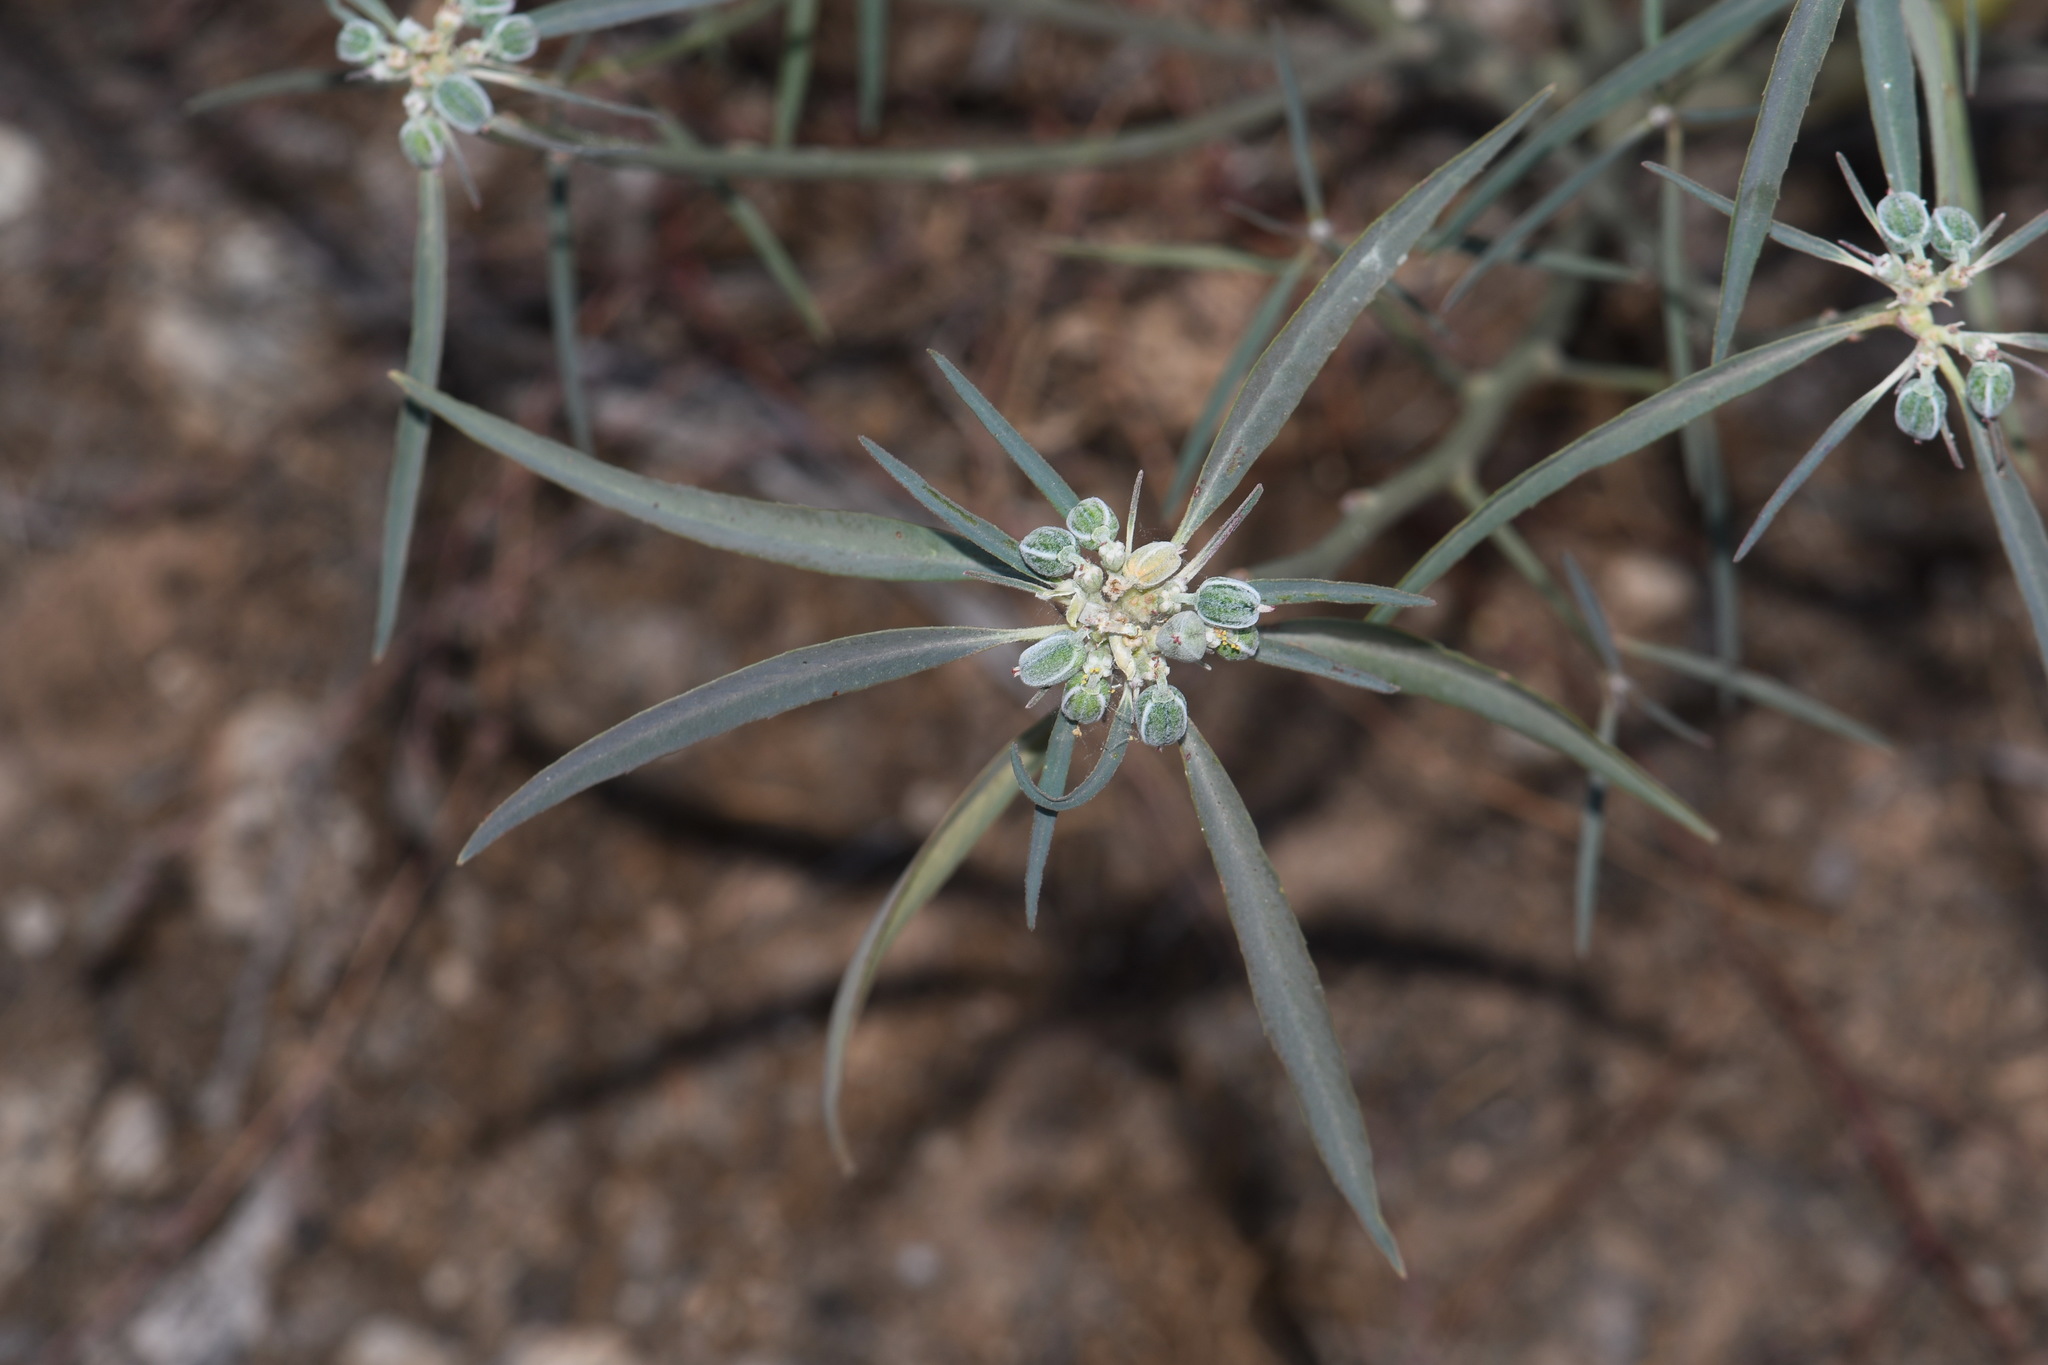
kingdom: Plantae
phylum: Tracheophyta
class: Magnoliopsida
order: Malpighiales
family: Euphorbiaceae
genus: Euphorbia
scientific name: Euphorbia eriantha
